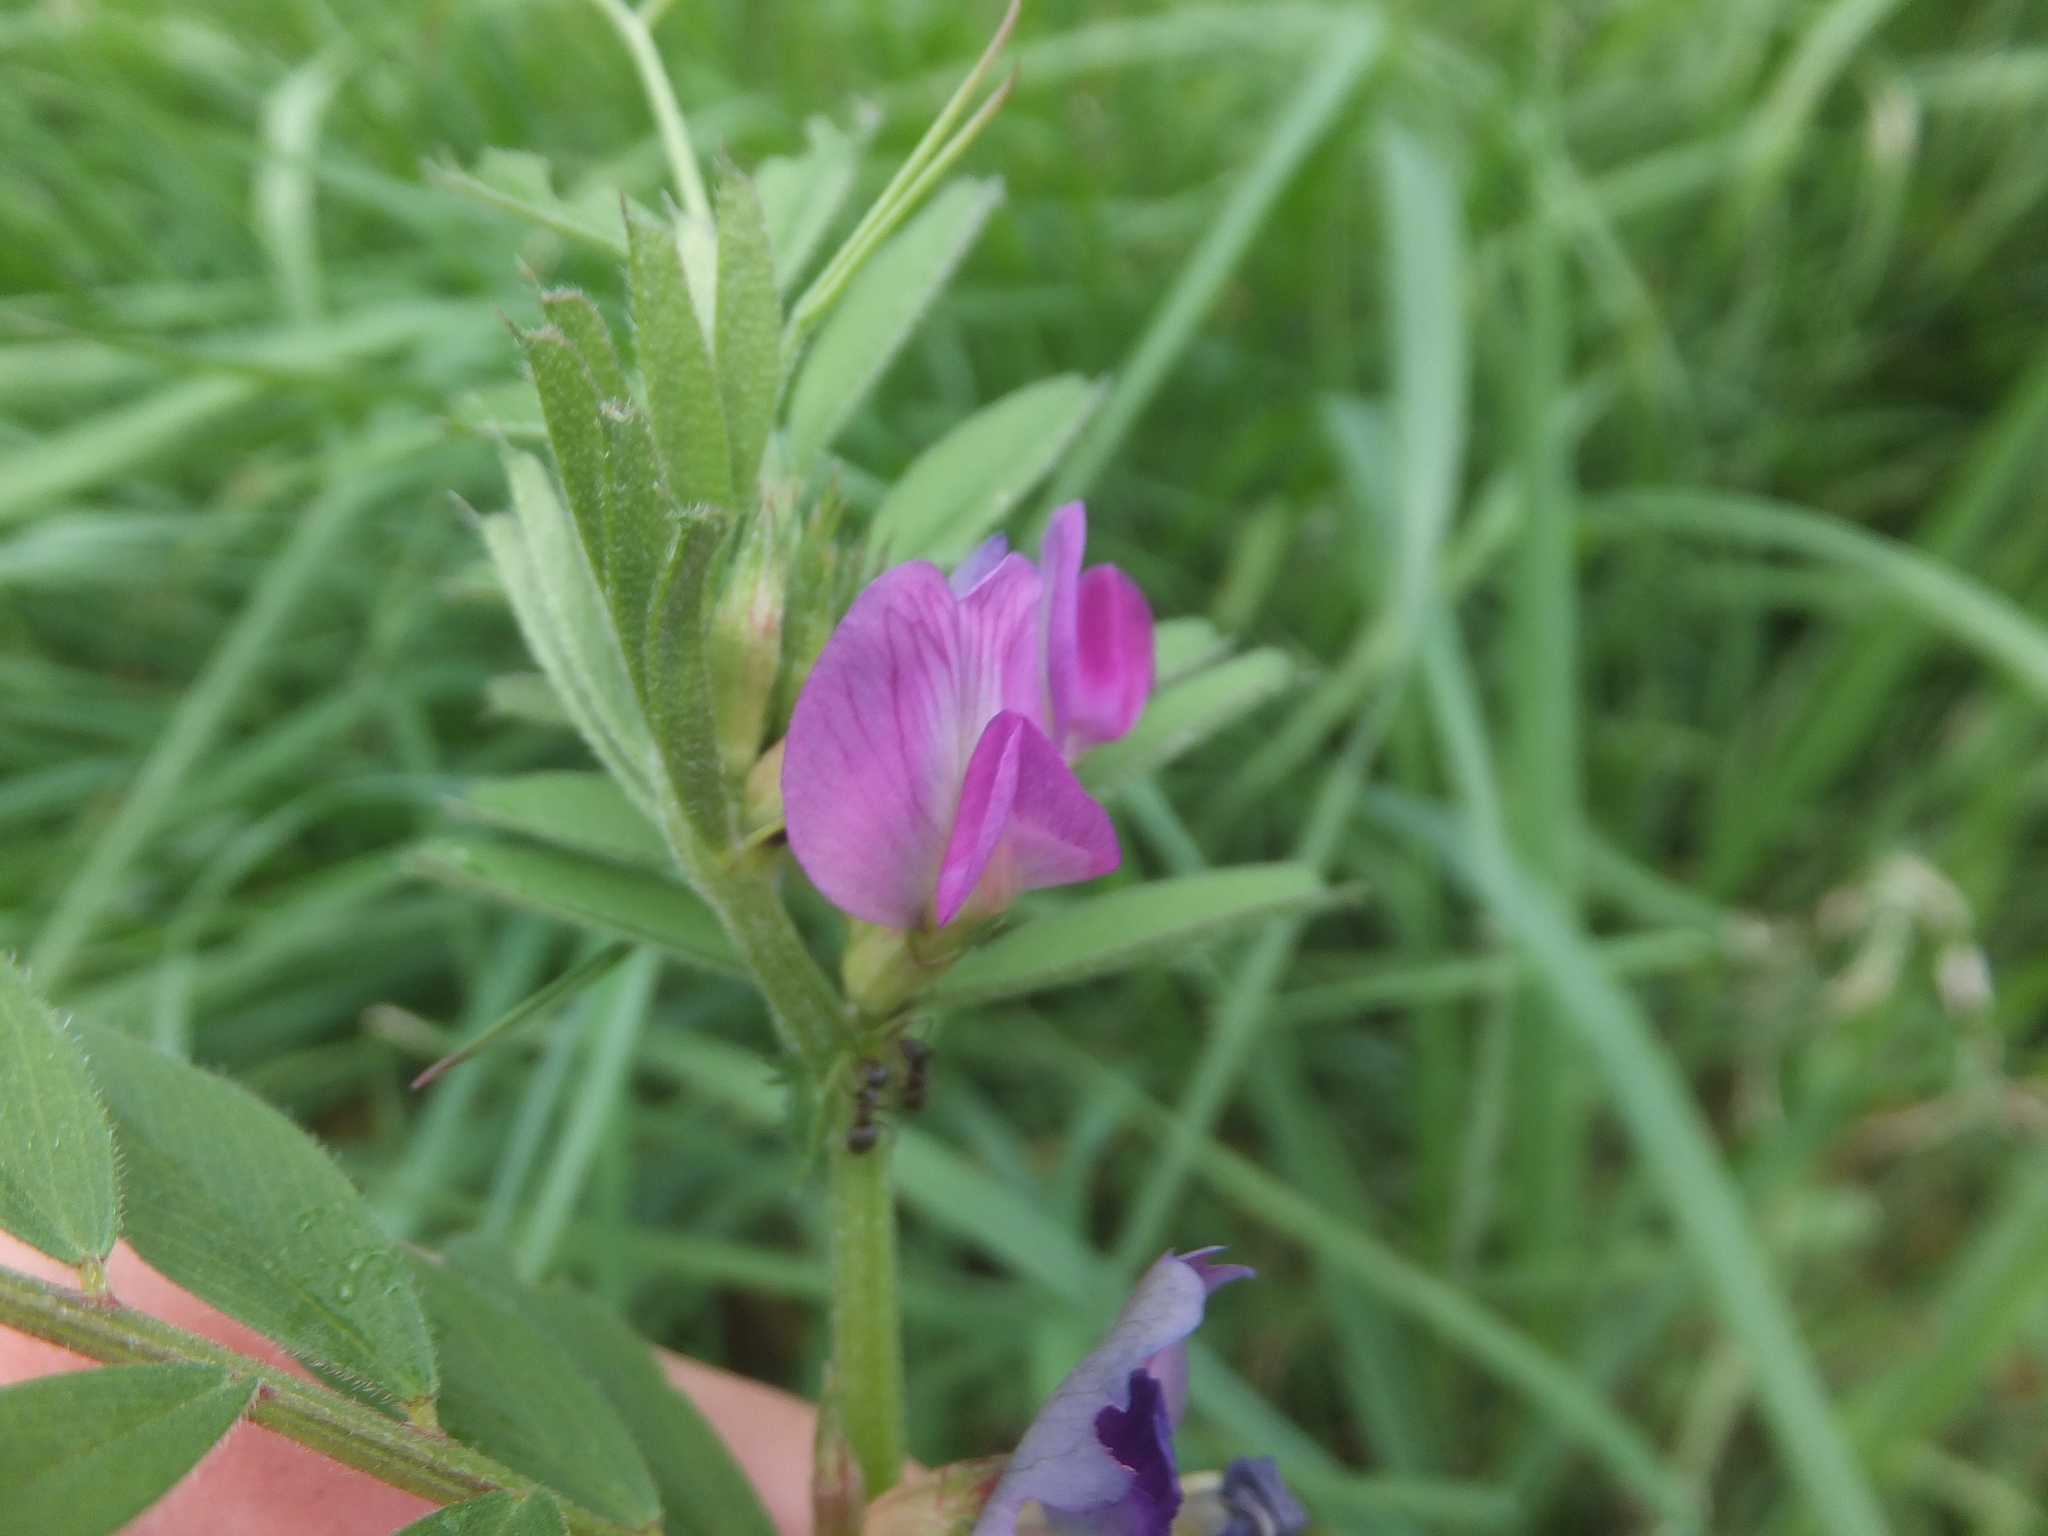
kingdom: Plantae
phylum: Tracheophyta
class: Magnoliopsida
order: Fabales
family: Fabaceae
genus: Vicia
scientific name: Vicia sativa
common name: Garden vetch
